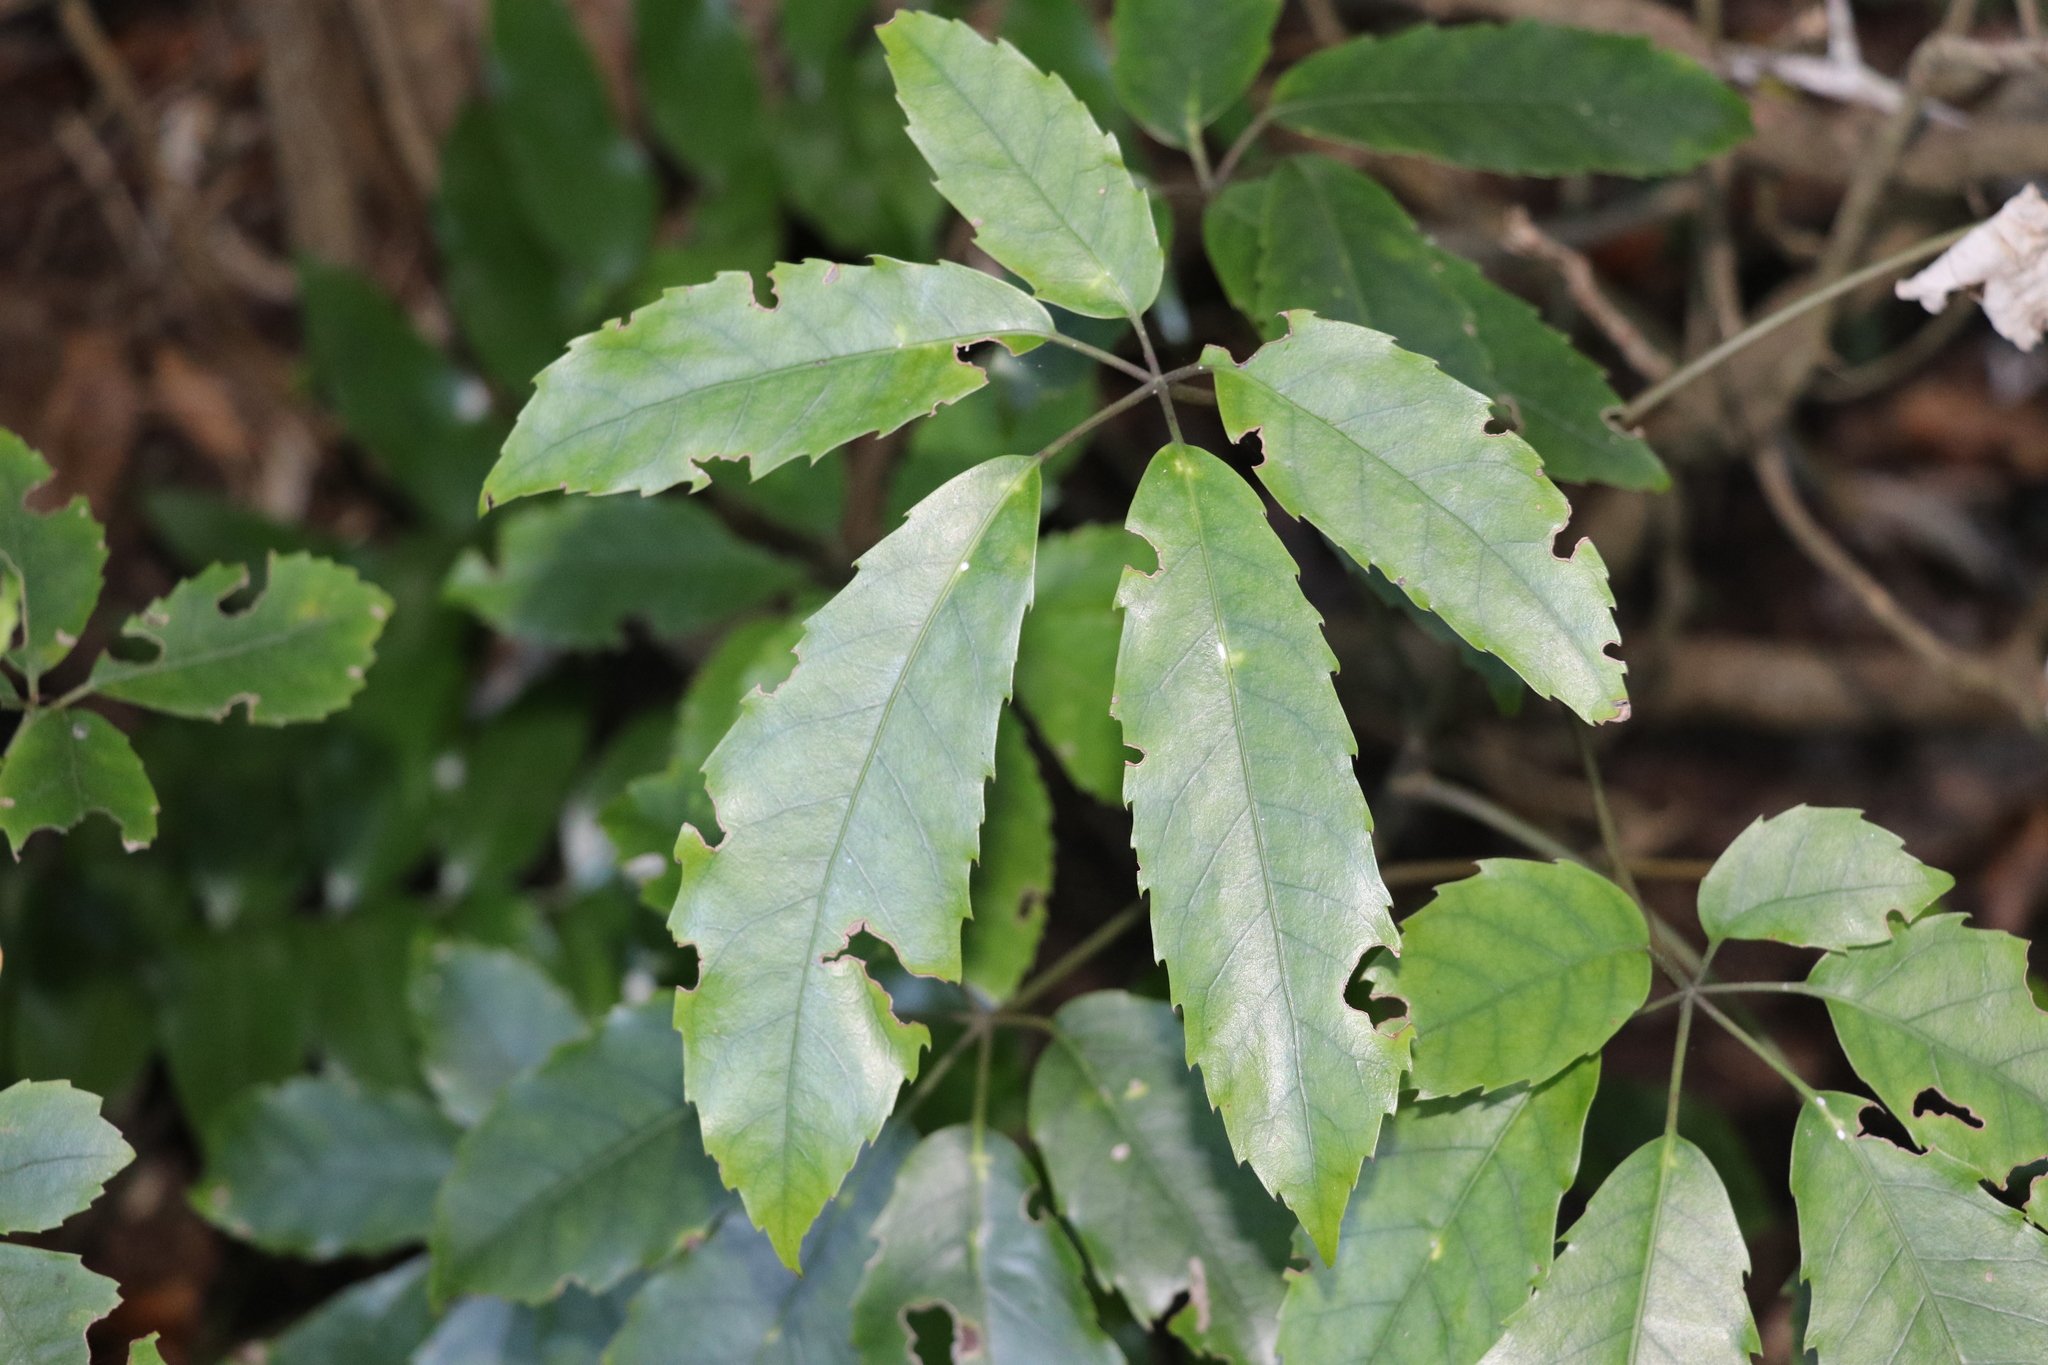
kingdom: Plantae
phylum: Tracheophyta
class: Magnoliopsida
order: Apiales
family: Araliaceae
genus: Neopanax
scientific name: Neopanax arboreus
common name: Five-fingers
